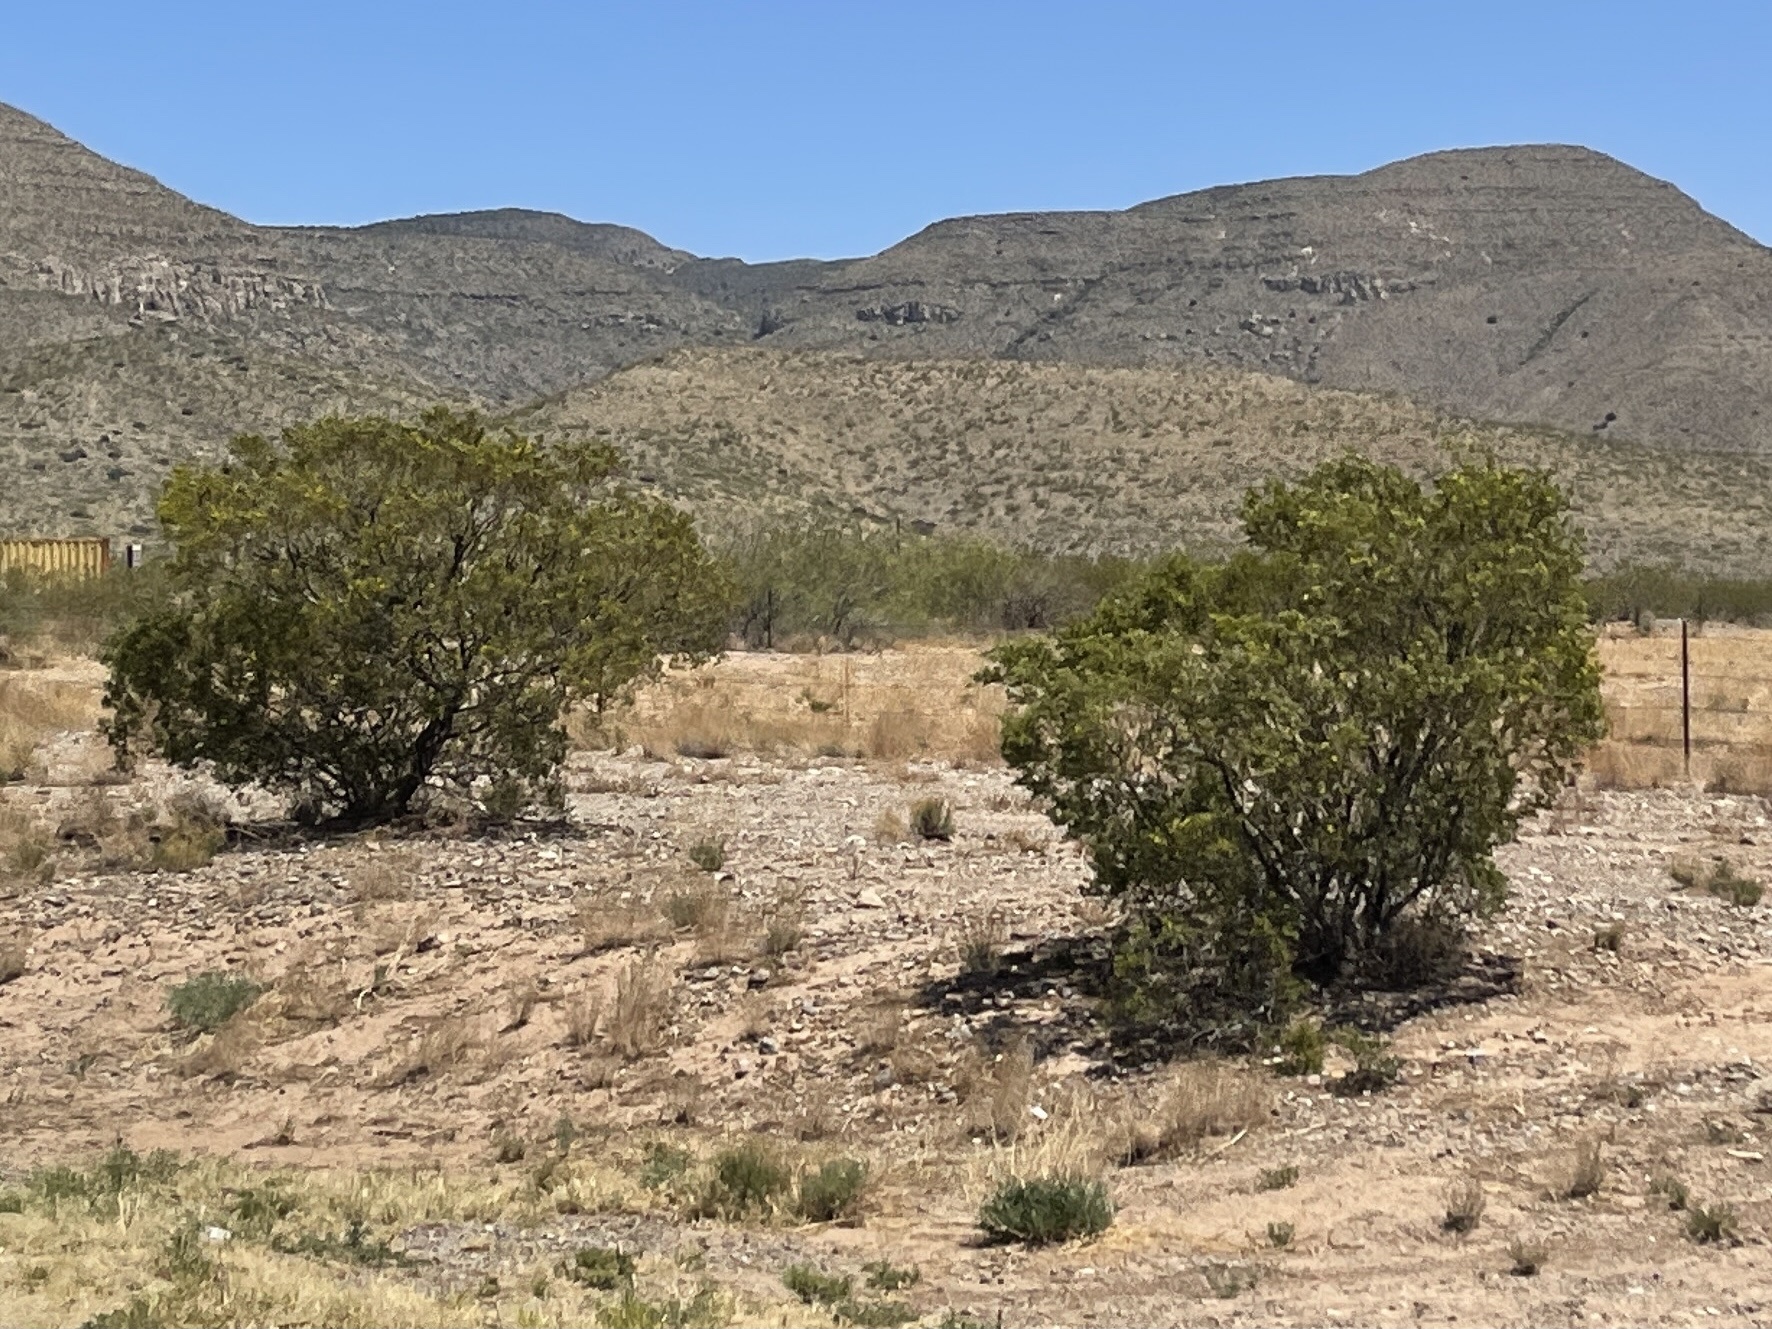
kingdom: Plantae
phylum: Tracheophyta
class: Magnoliopsida
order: Zygophyllales
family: Zygophyllaceae
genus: Larrea
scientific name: Larrea tridentata
